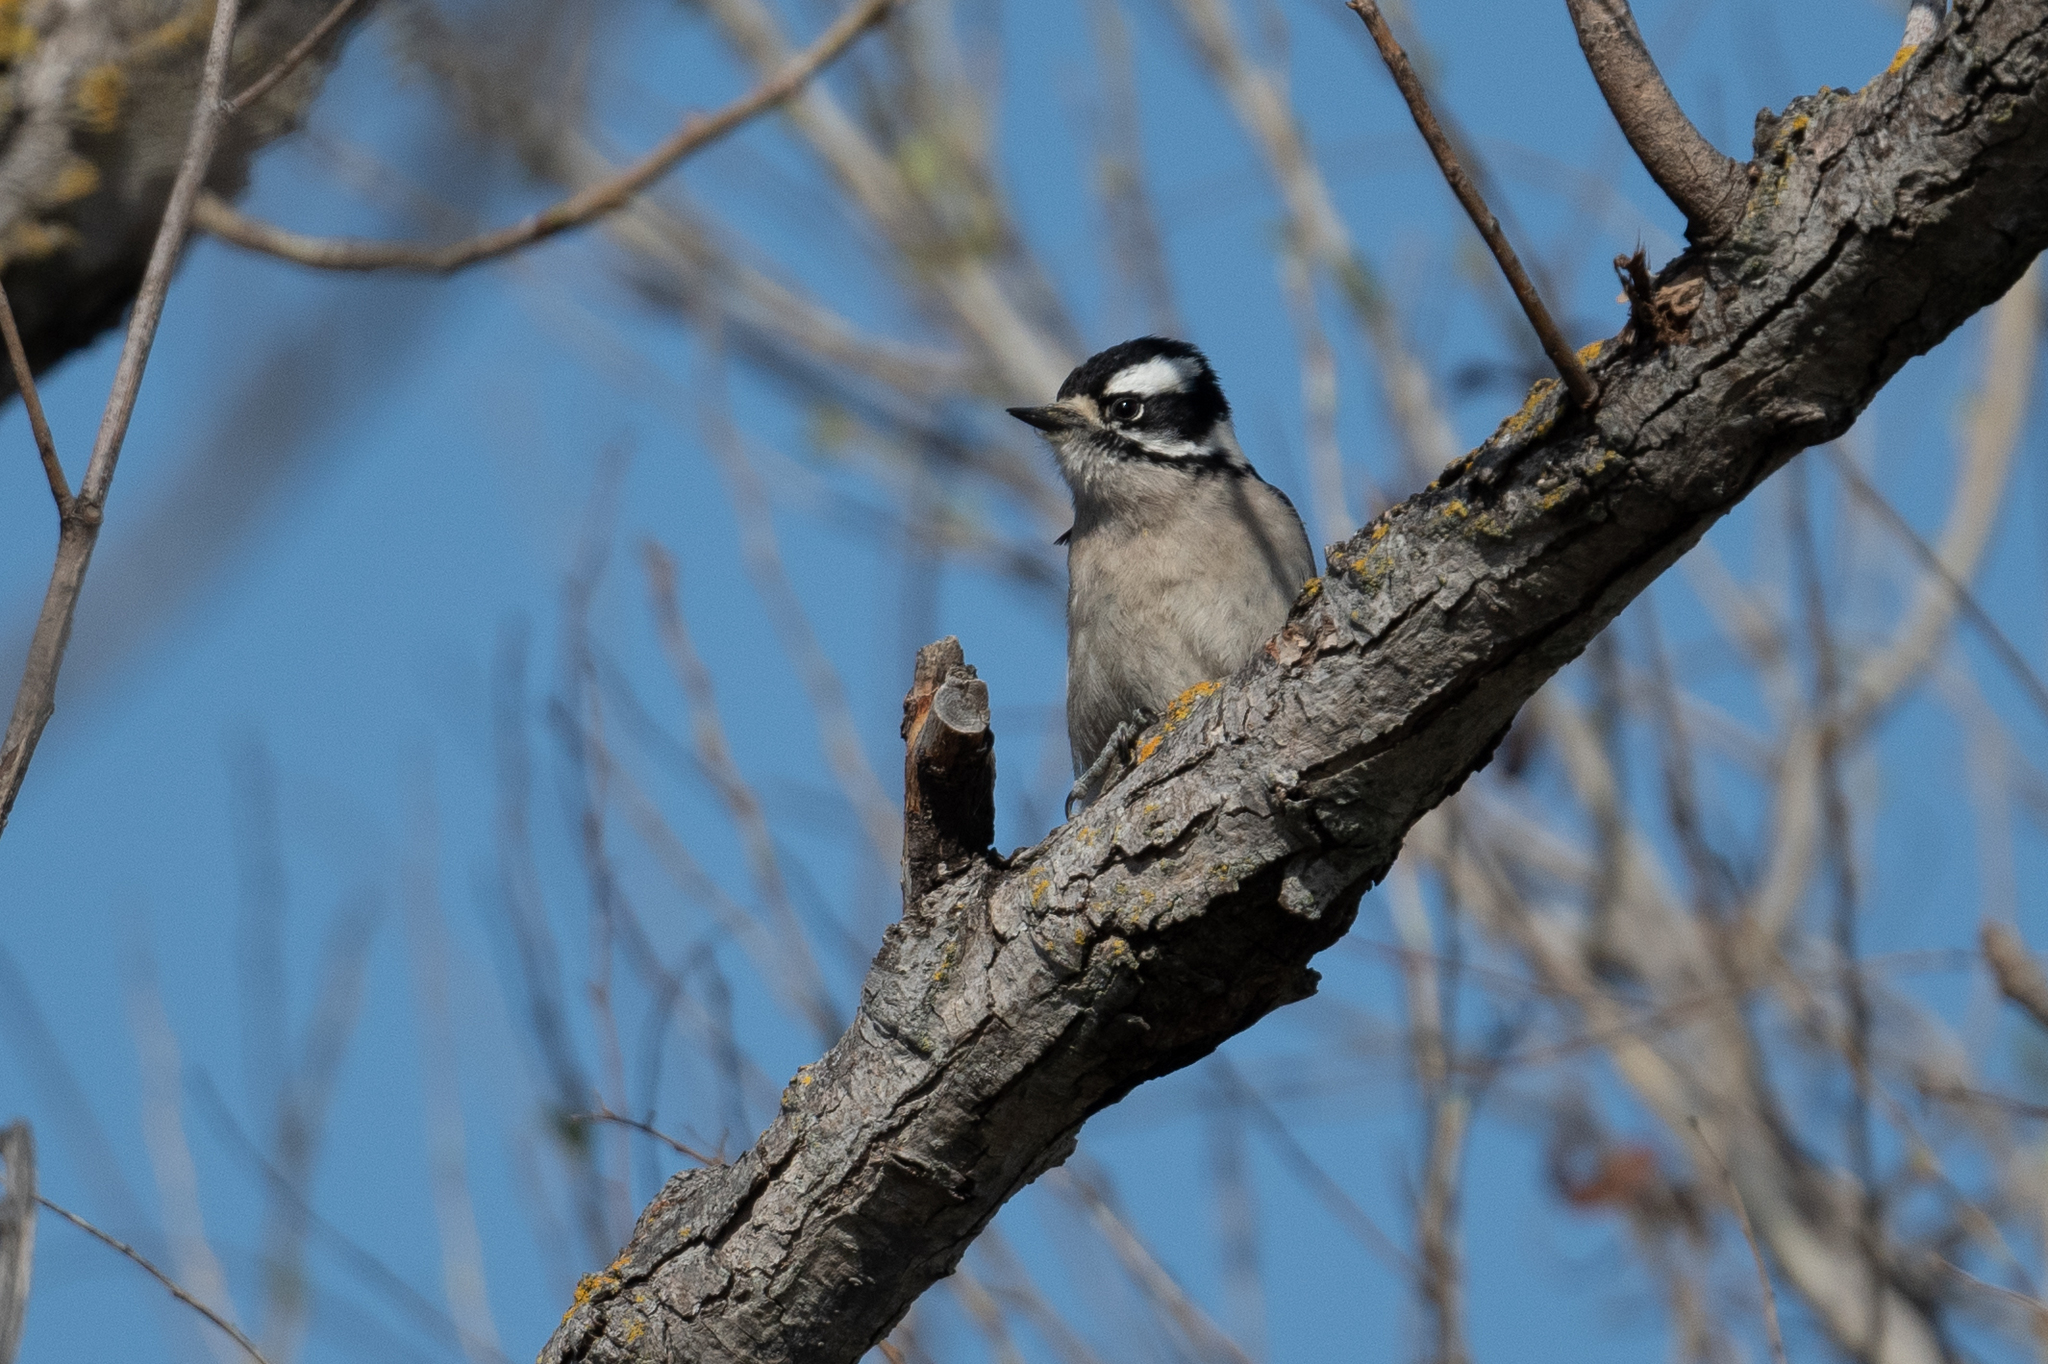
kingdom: Animalia
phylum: Chordata
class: Aves
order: Piciformes
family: Picidae
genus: Dryobates
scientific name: Dryobates pubescens
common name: Downy woodpecker
